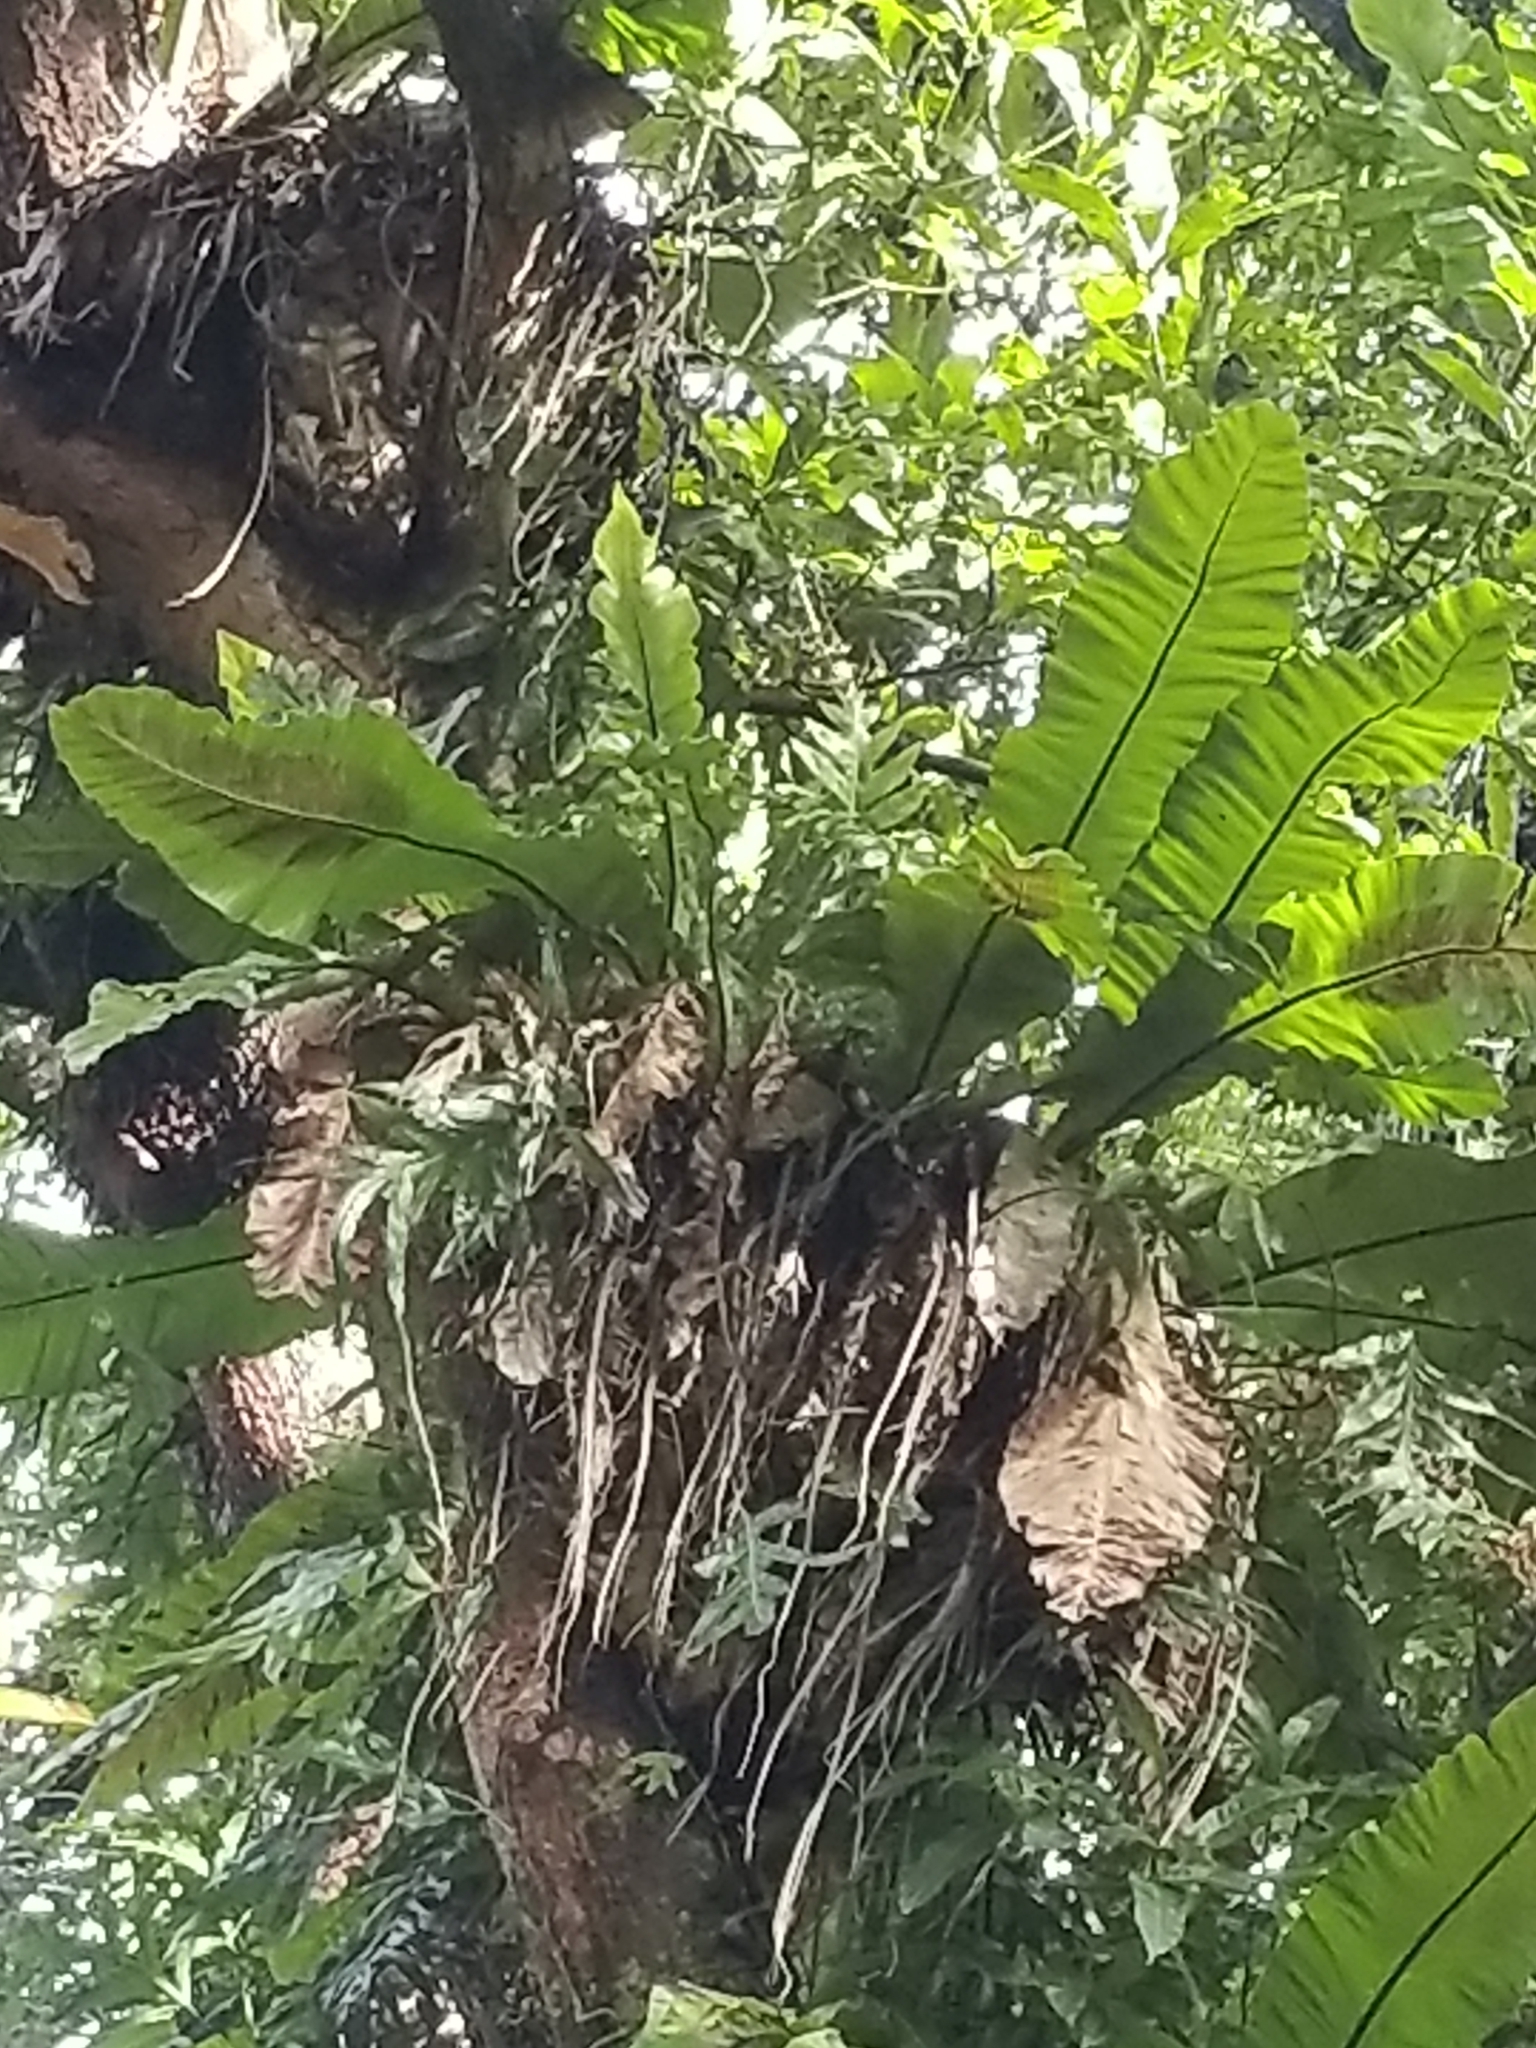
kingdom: Plantae
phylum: Tracheophyta
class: Polypodiopsida
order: Polypodiales
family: Aspleniaceae
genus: Asplenium
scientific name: Asplenium nidus
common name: Bird's-nest fern
